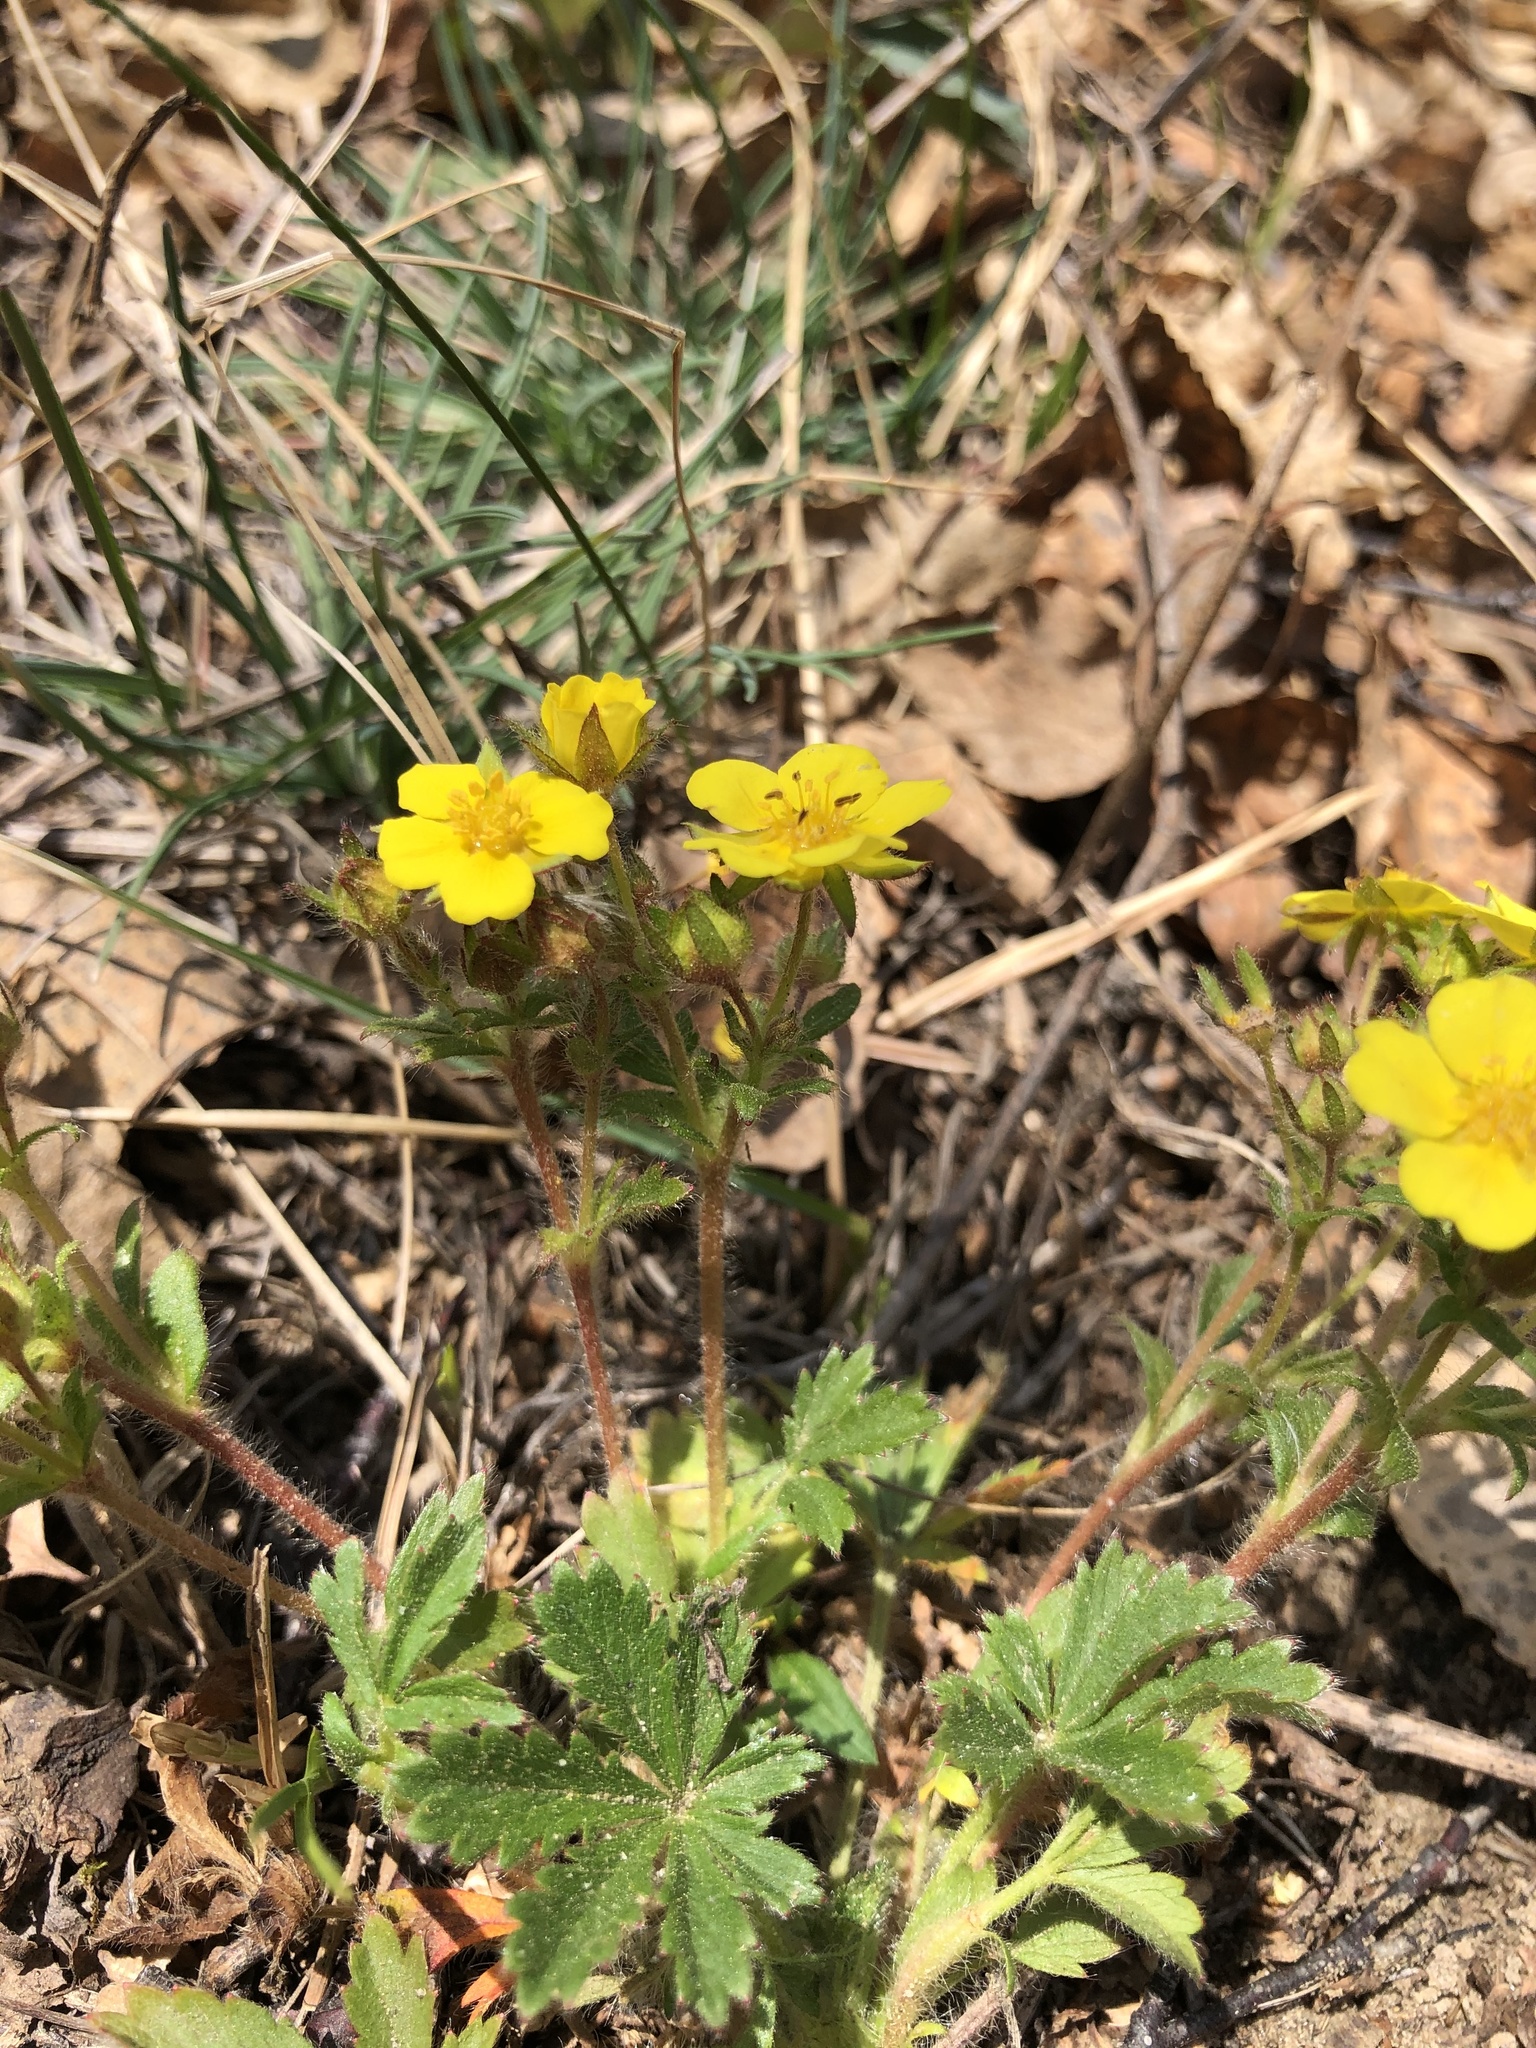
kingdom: Plantae
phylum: Tracheophyta
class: Magnoliopsida
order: Rosales
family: Rosaceae
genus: Potentilla
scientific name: Potentilla humifusa
